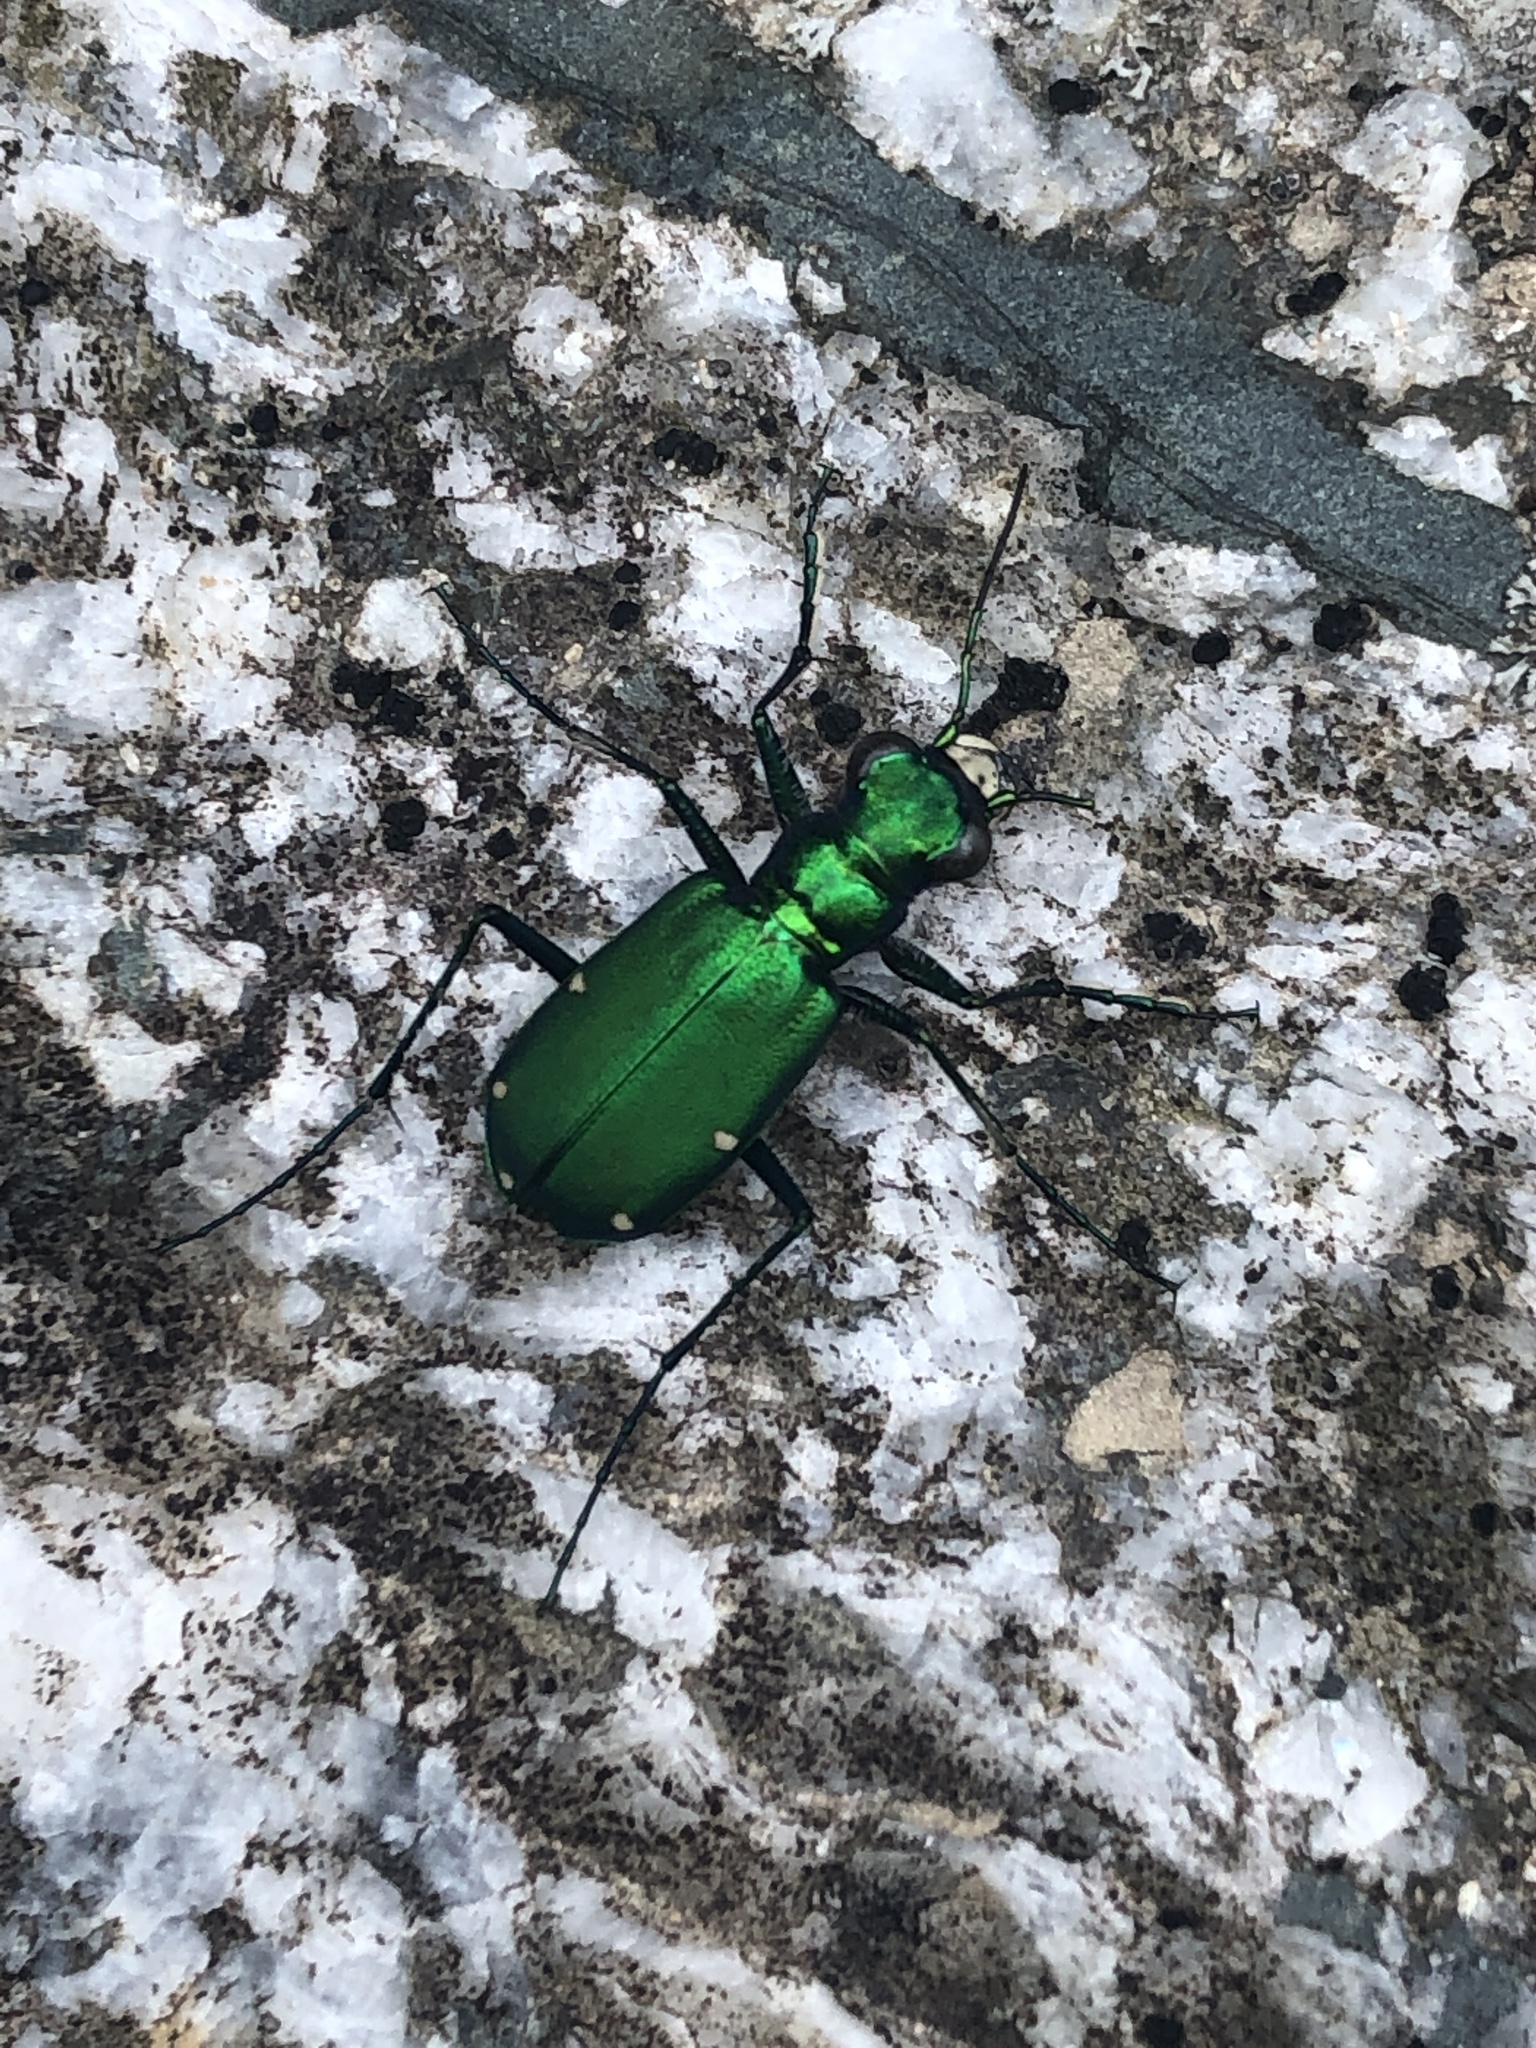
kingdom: Animalia
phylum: Arthropoda
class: Insecta
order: Coleoptera
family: Carabidae
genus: Cicindela
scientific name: Cicindela sexguttata
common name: Six-spotted tiger beetle
